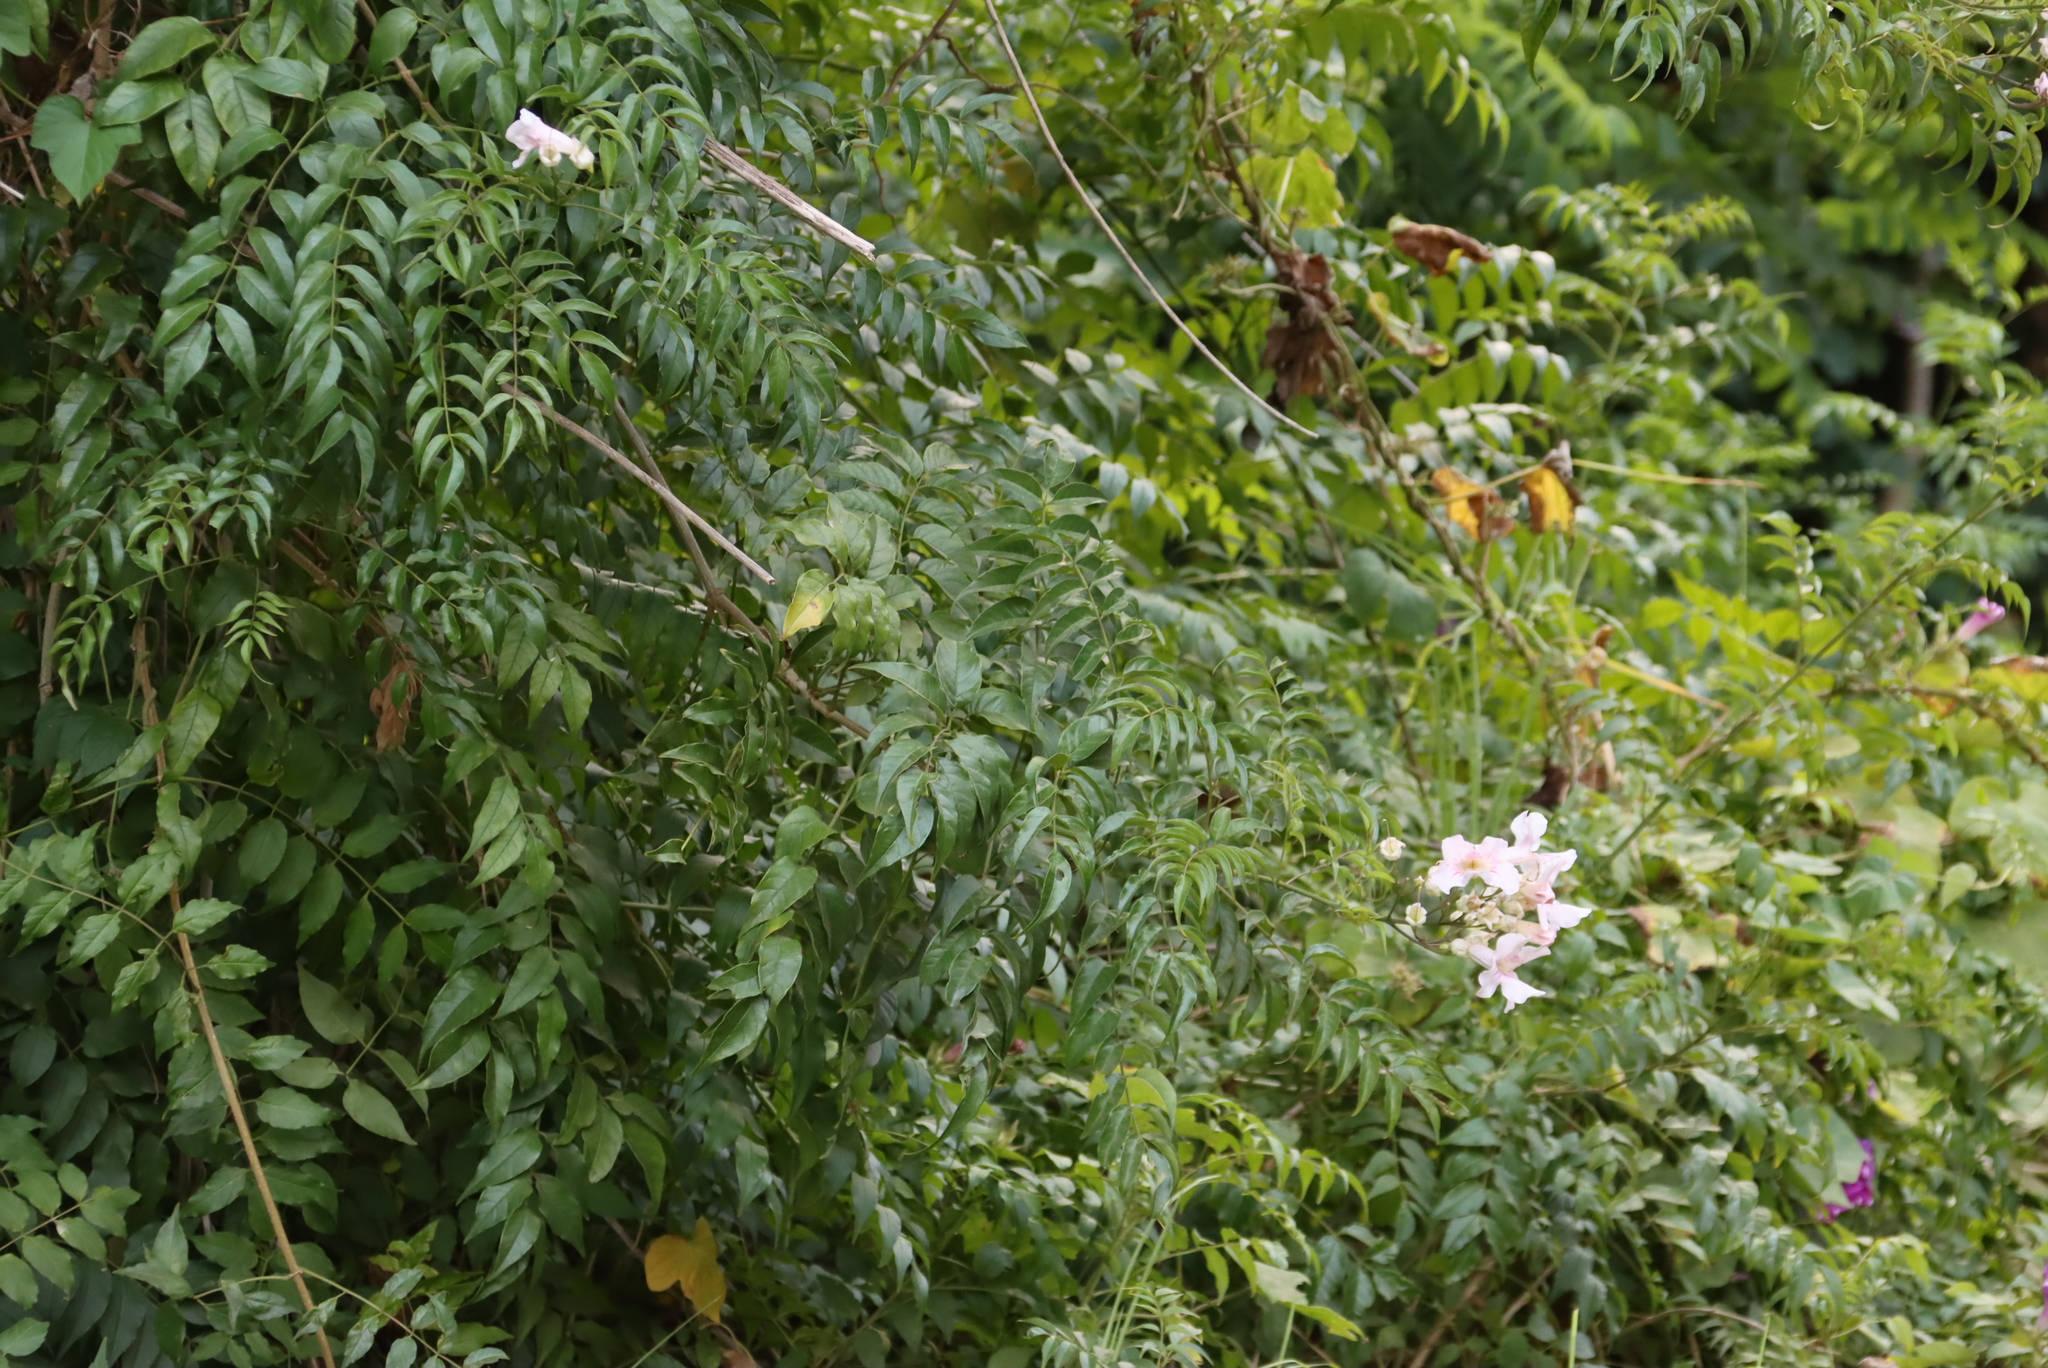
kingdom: Plantae
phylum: Tracheophyta
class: Magnoliopsida
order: Lamiales
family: Bignoniaceae
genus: Podranea
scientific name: Podranea ricasoliana
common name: Zimbabwe creeper
